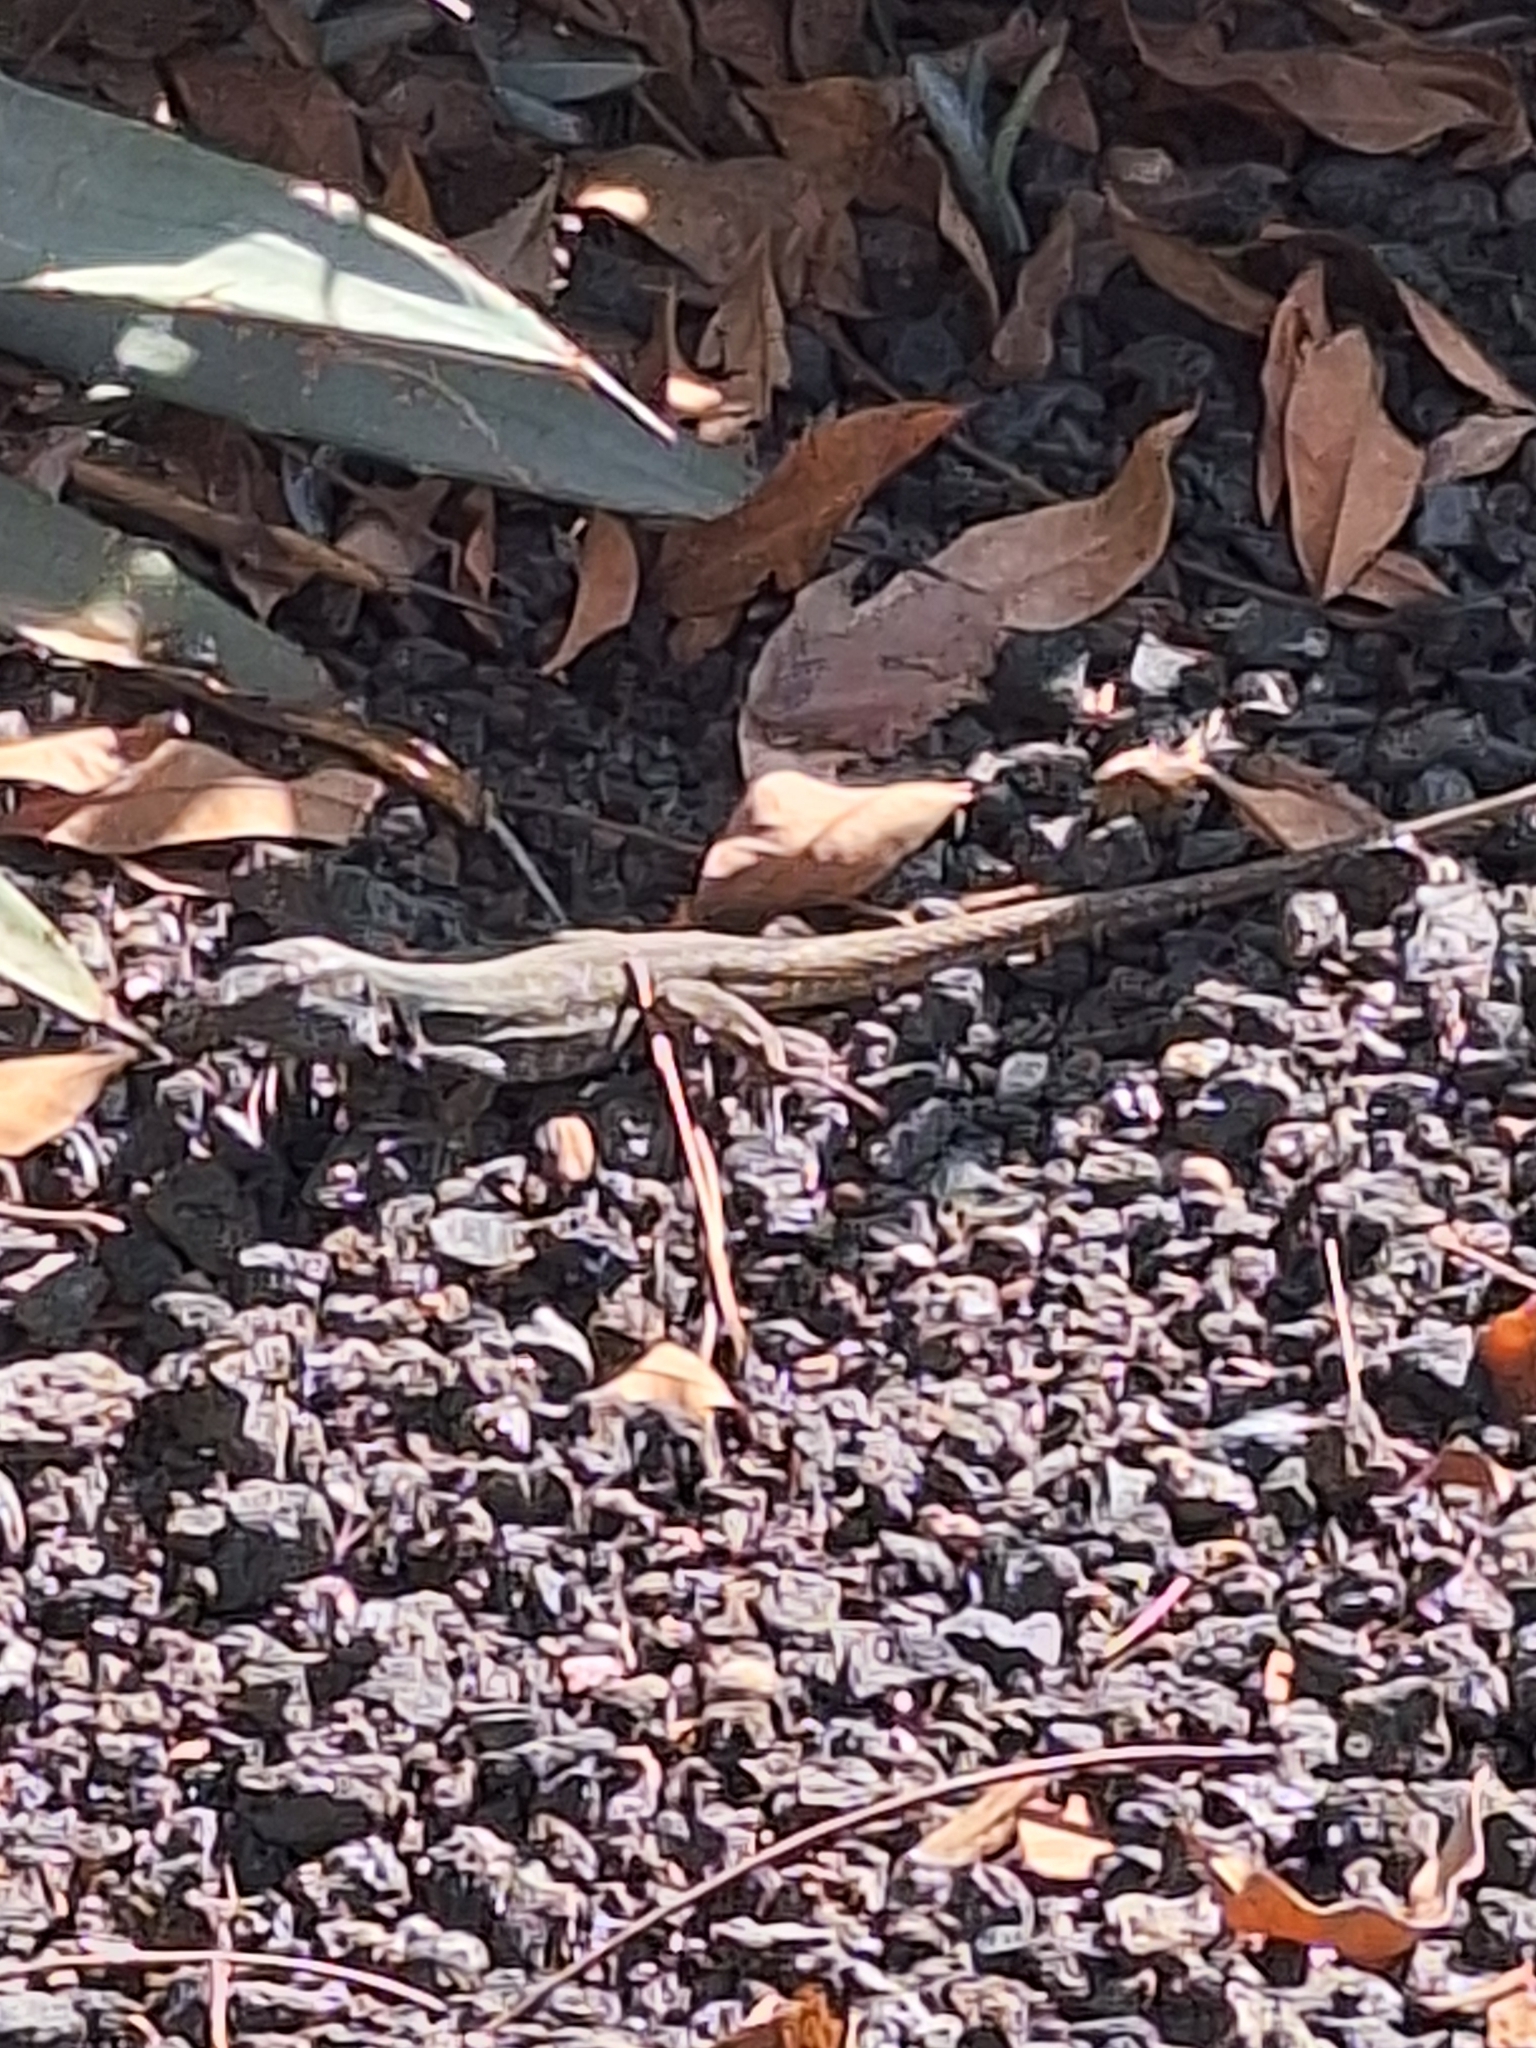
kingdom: Animalia
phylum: Chordata
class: Squamata
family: Lacertidae
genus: Gallotia
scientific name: Gallotia galloti
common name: Gallot's lizard
